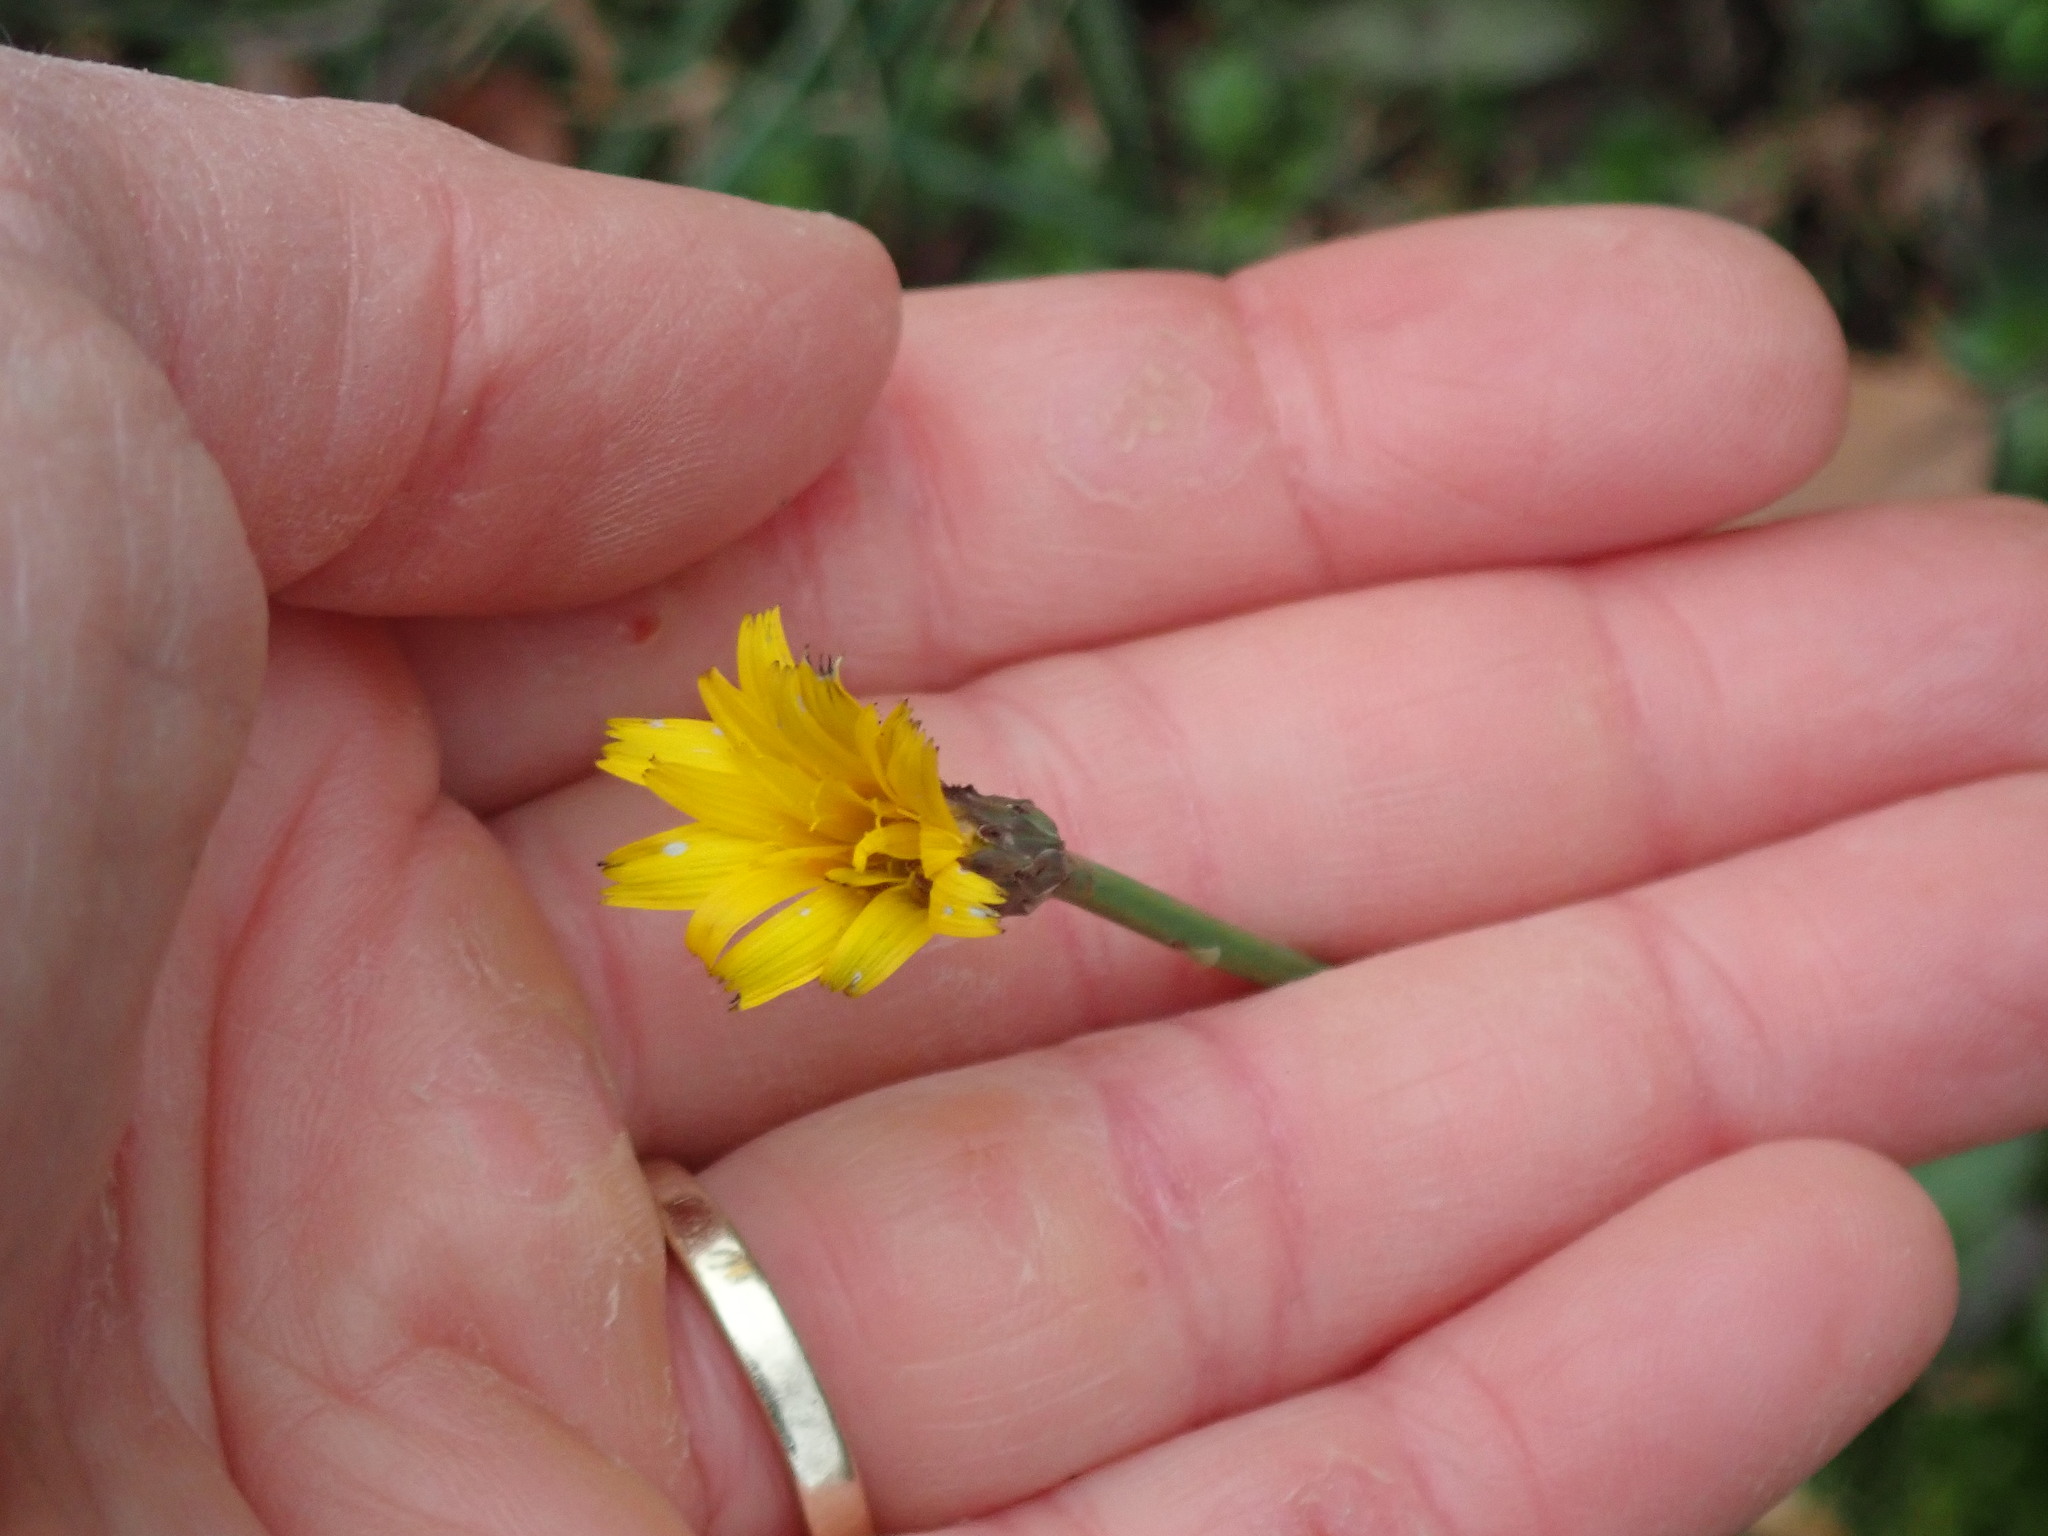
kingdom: Plantae
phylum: Tracheophyta
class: Magnoliopsida
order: Asterales
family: Asteraceae
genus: Hypochaeris
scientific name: Hypochaeris radicata
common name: Flatweed
